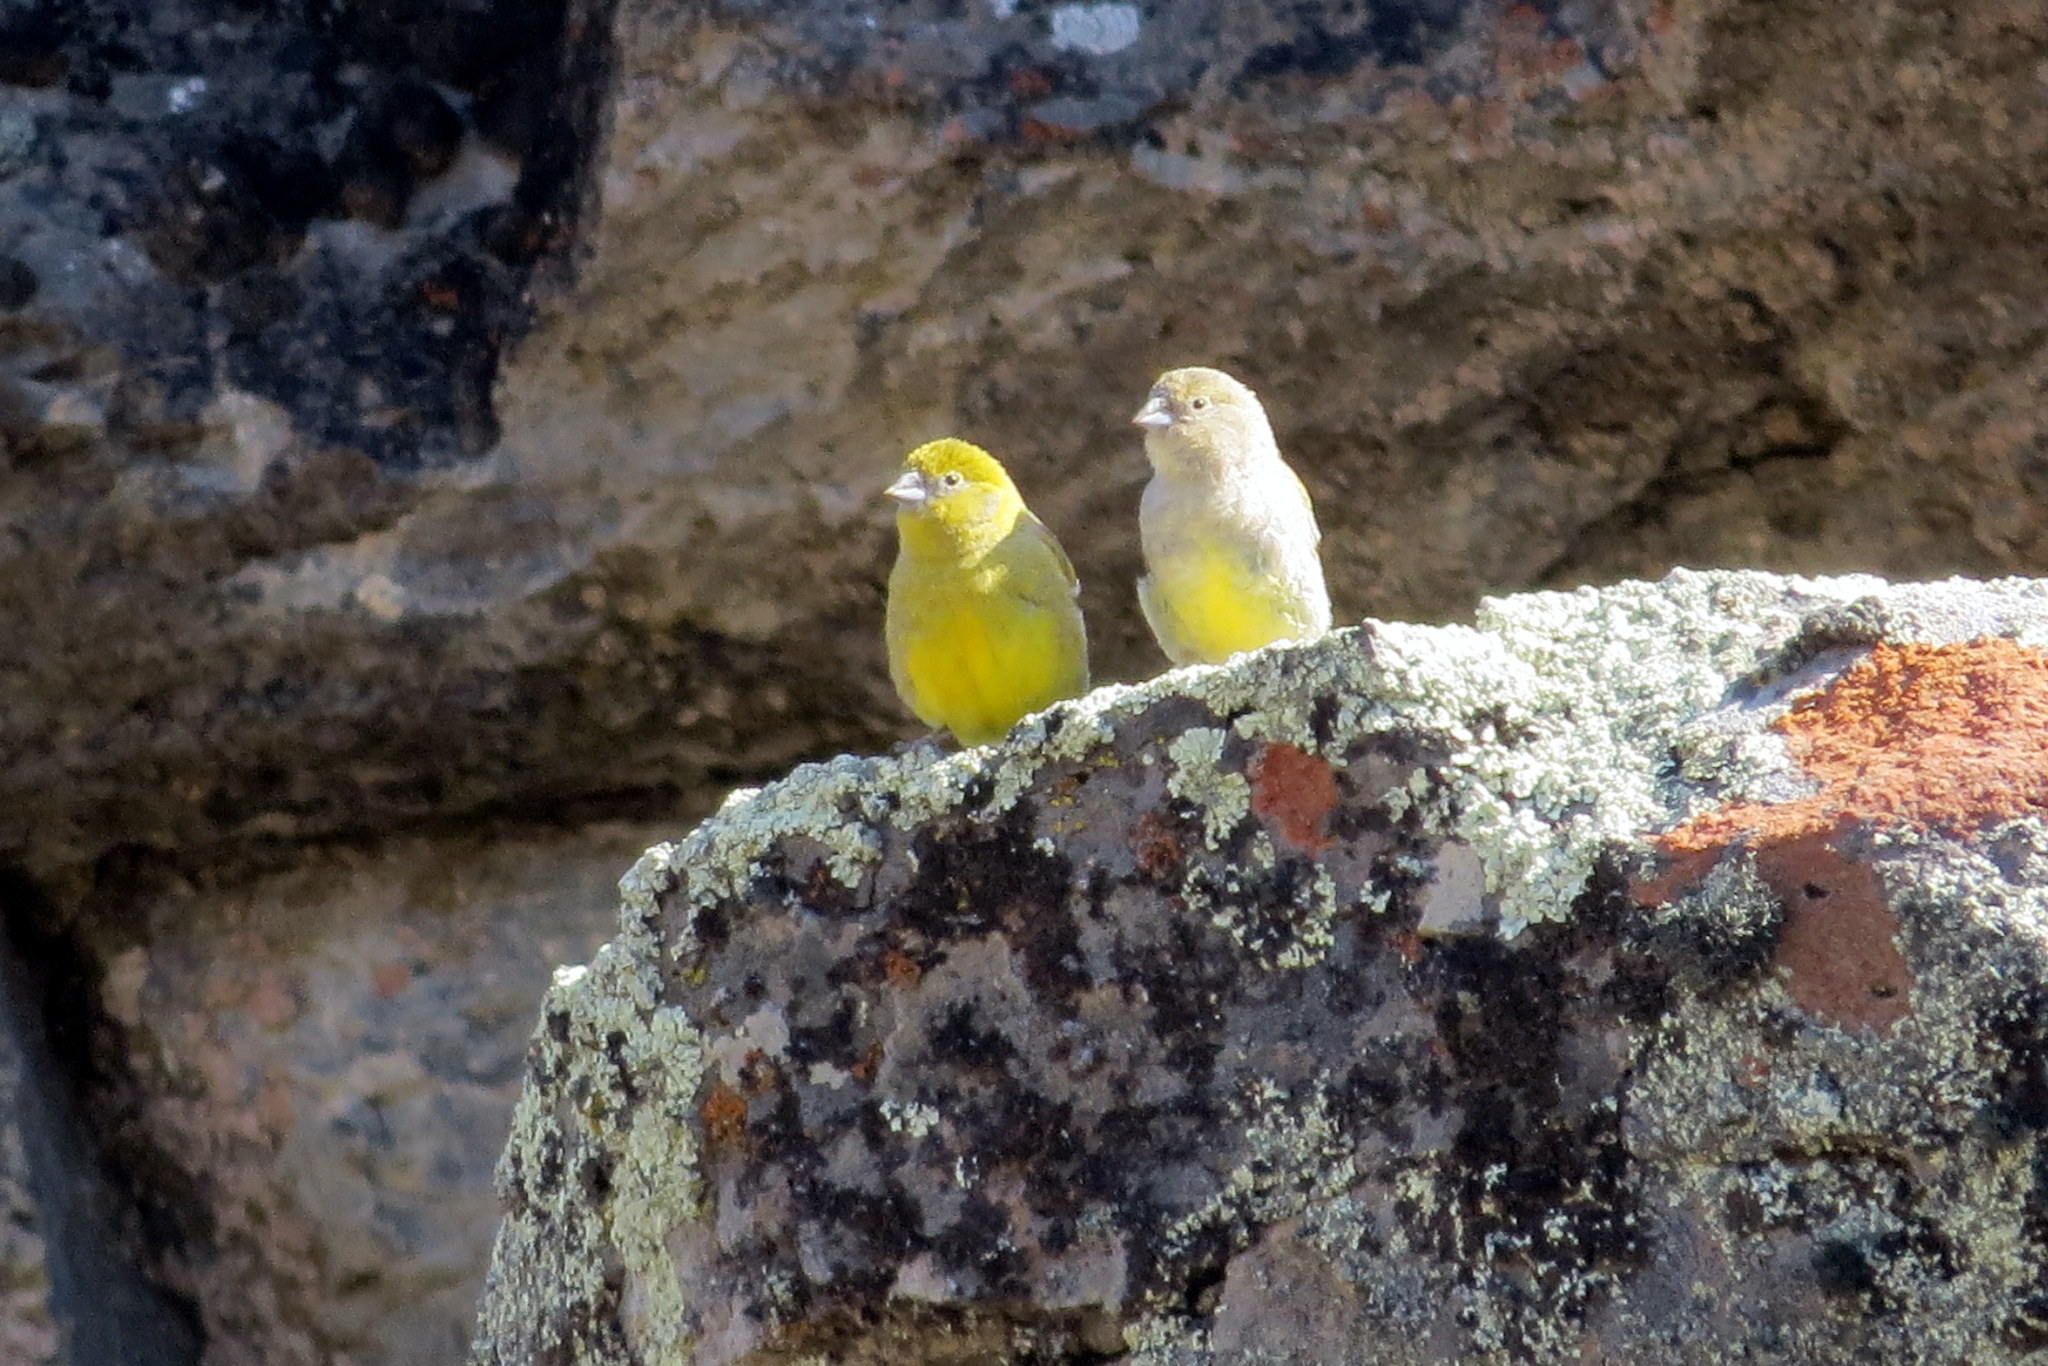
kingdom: Animalia
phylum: Chordata
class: Aves
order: Passeriformes
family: Thraupidae
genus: Sicalis
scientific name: Sicalis lebruni
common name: Patagonian yellow finch
